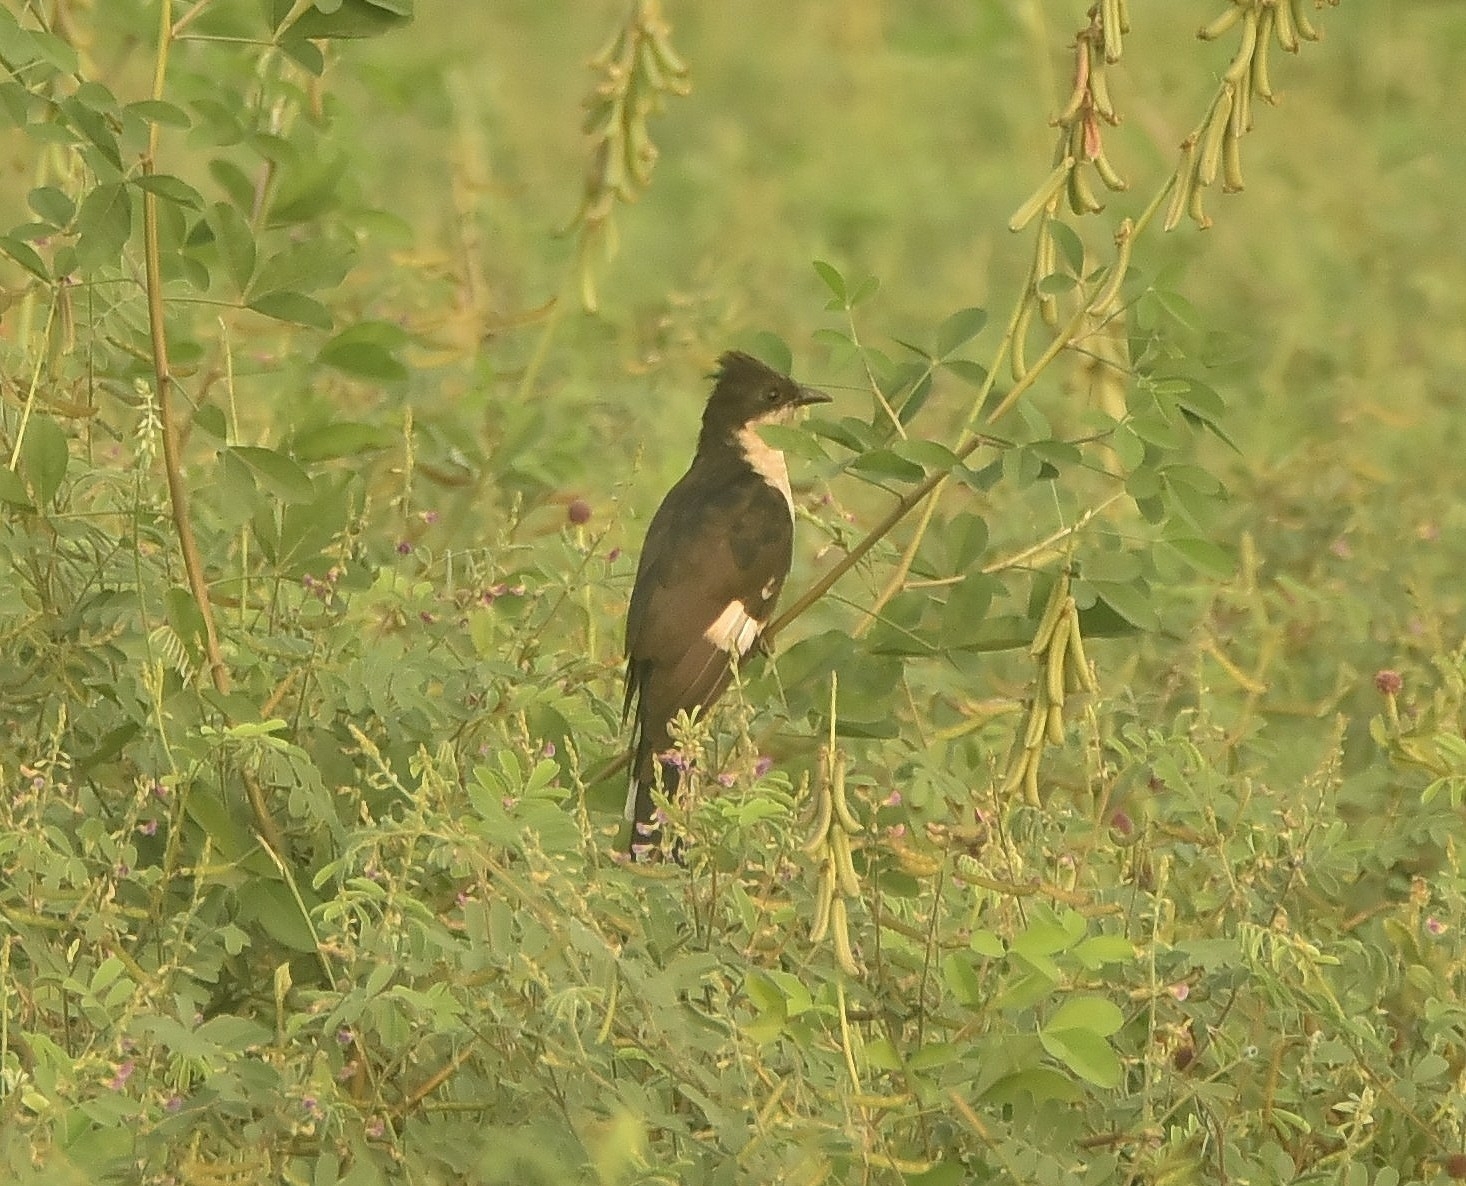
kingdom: Animalia
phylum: Chordata
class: Aves
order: Cuculiformes
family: Cuculidae
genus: Clamator
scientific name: Clamator jacobinus
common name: Jacobin cuckoo
